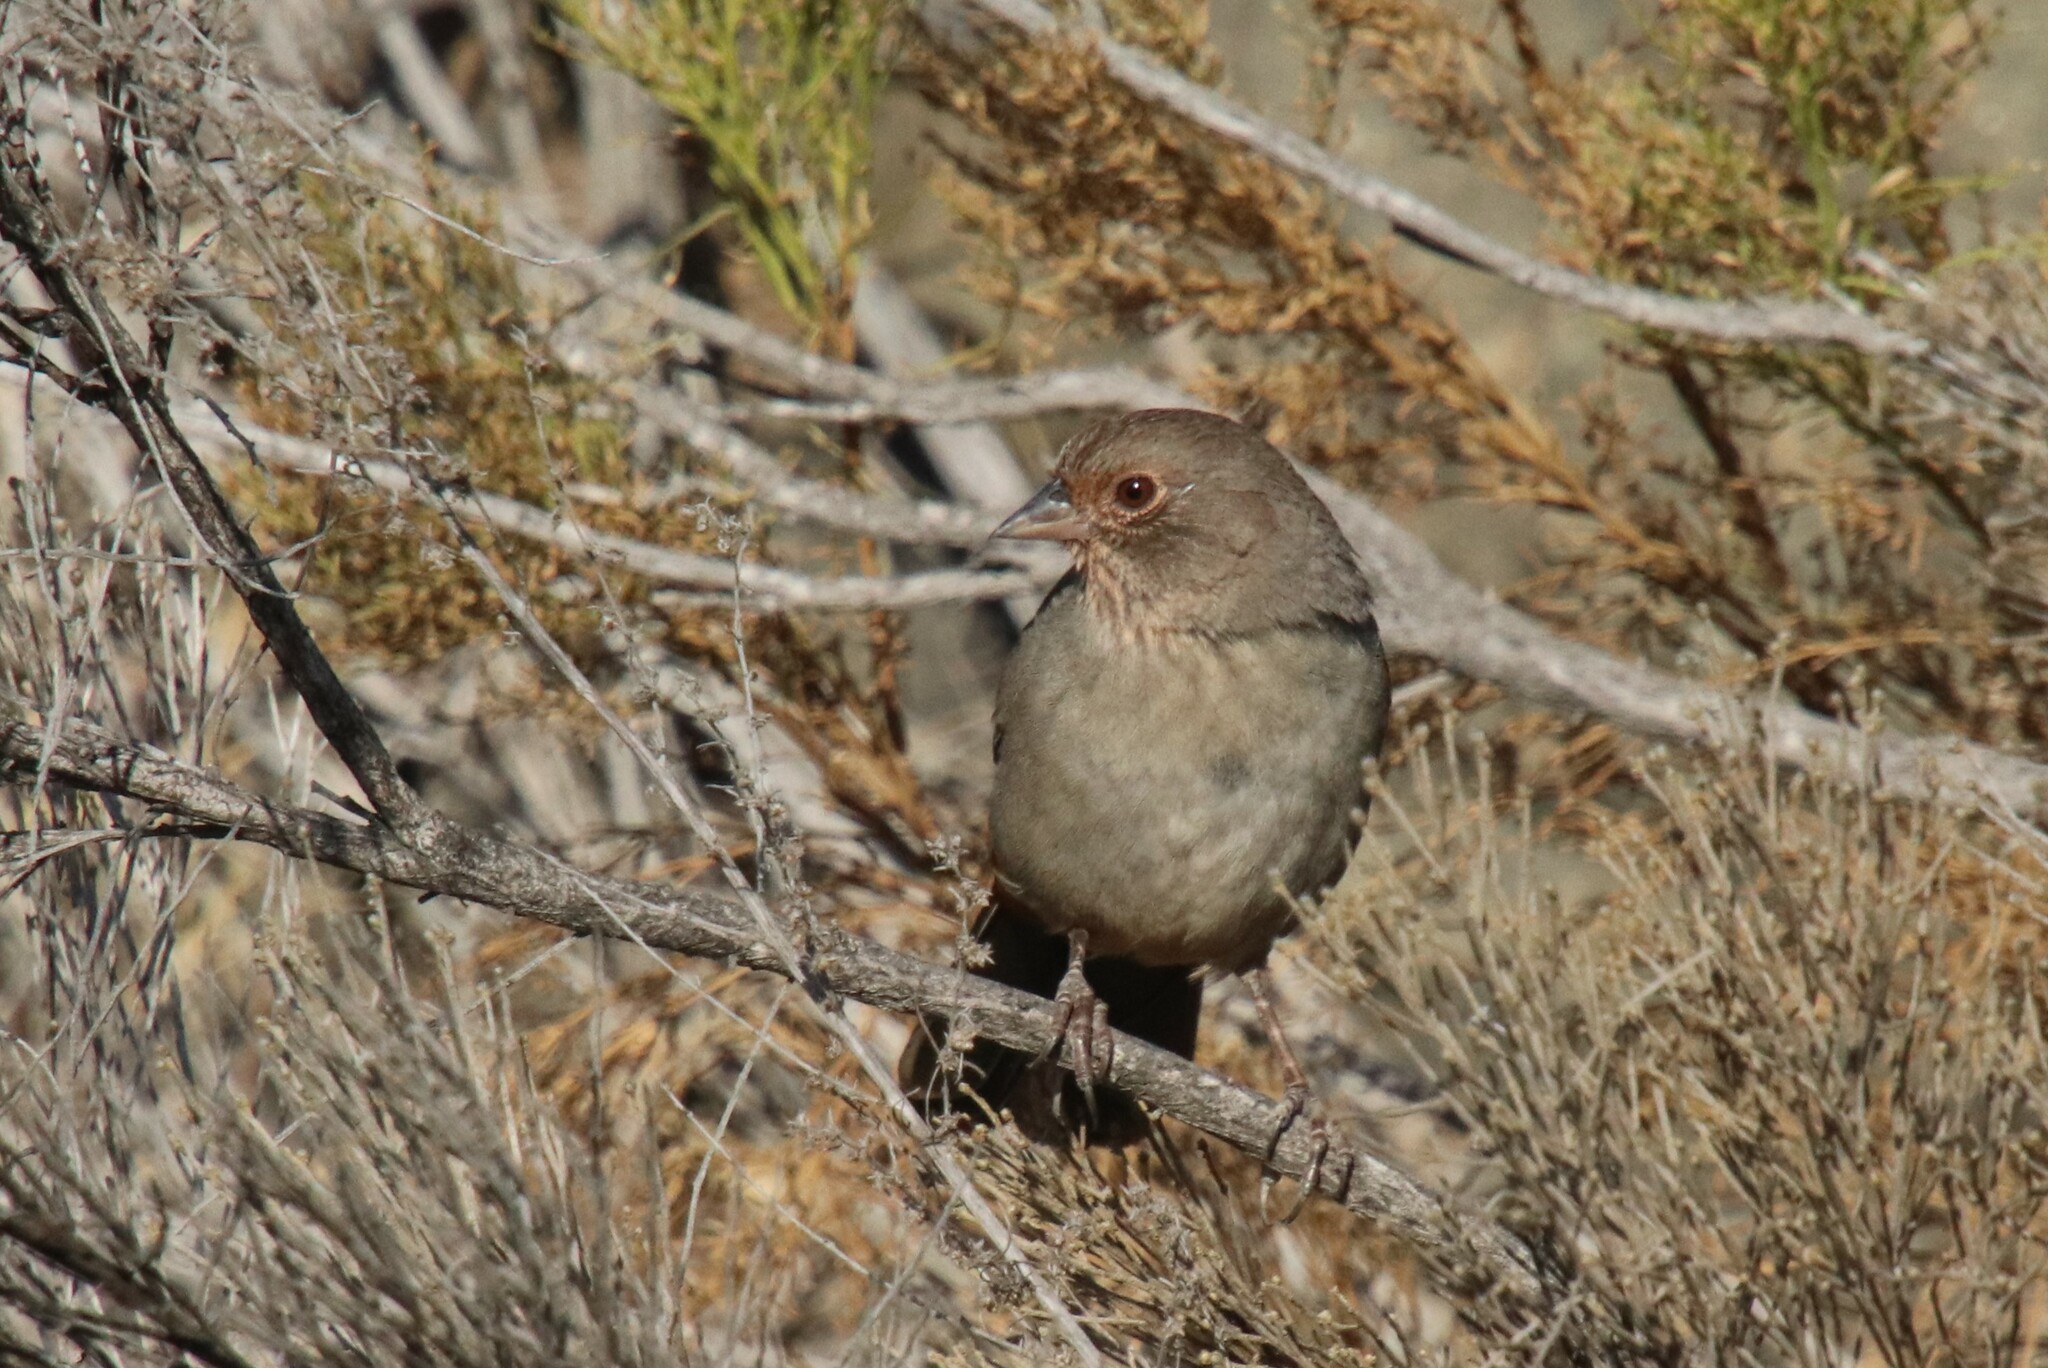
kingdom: Animalia
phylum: Chordata
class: Aves
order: Passeriformes
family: Passerellidae
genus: Melozone
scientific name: Melozone crissalis
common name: California towhee
